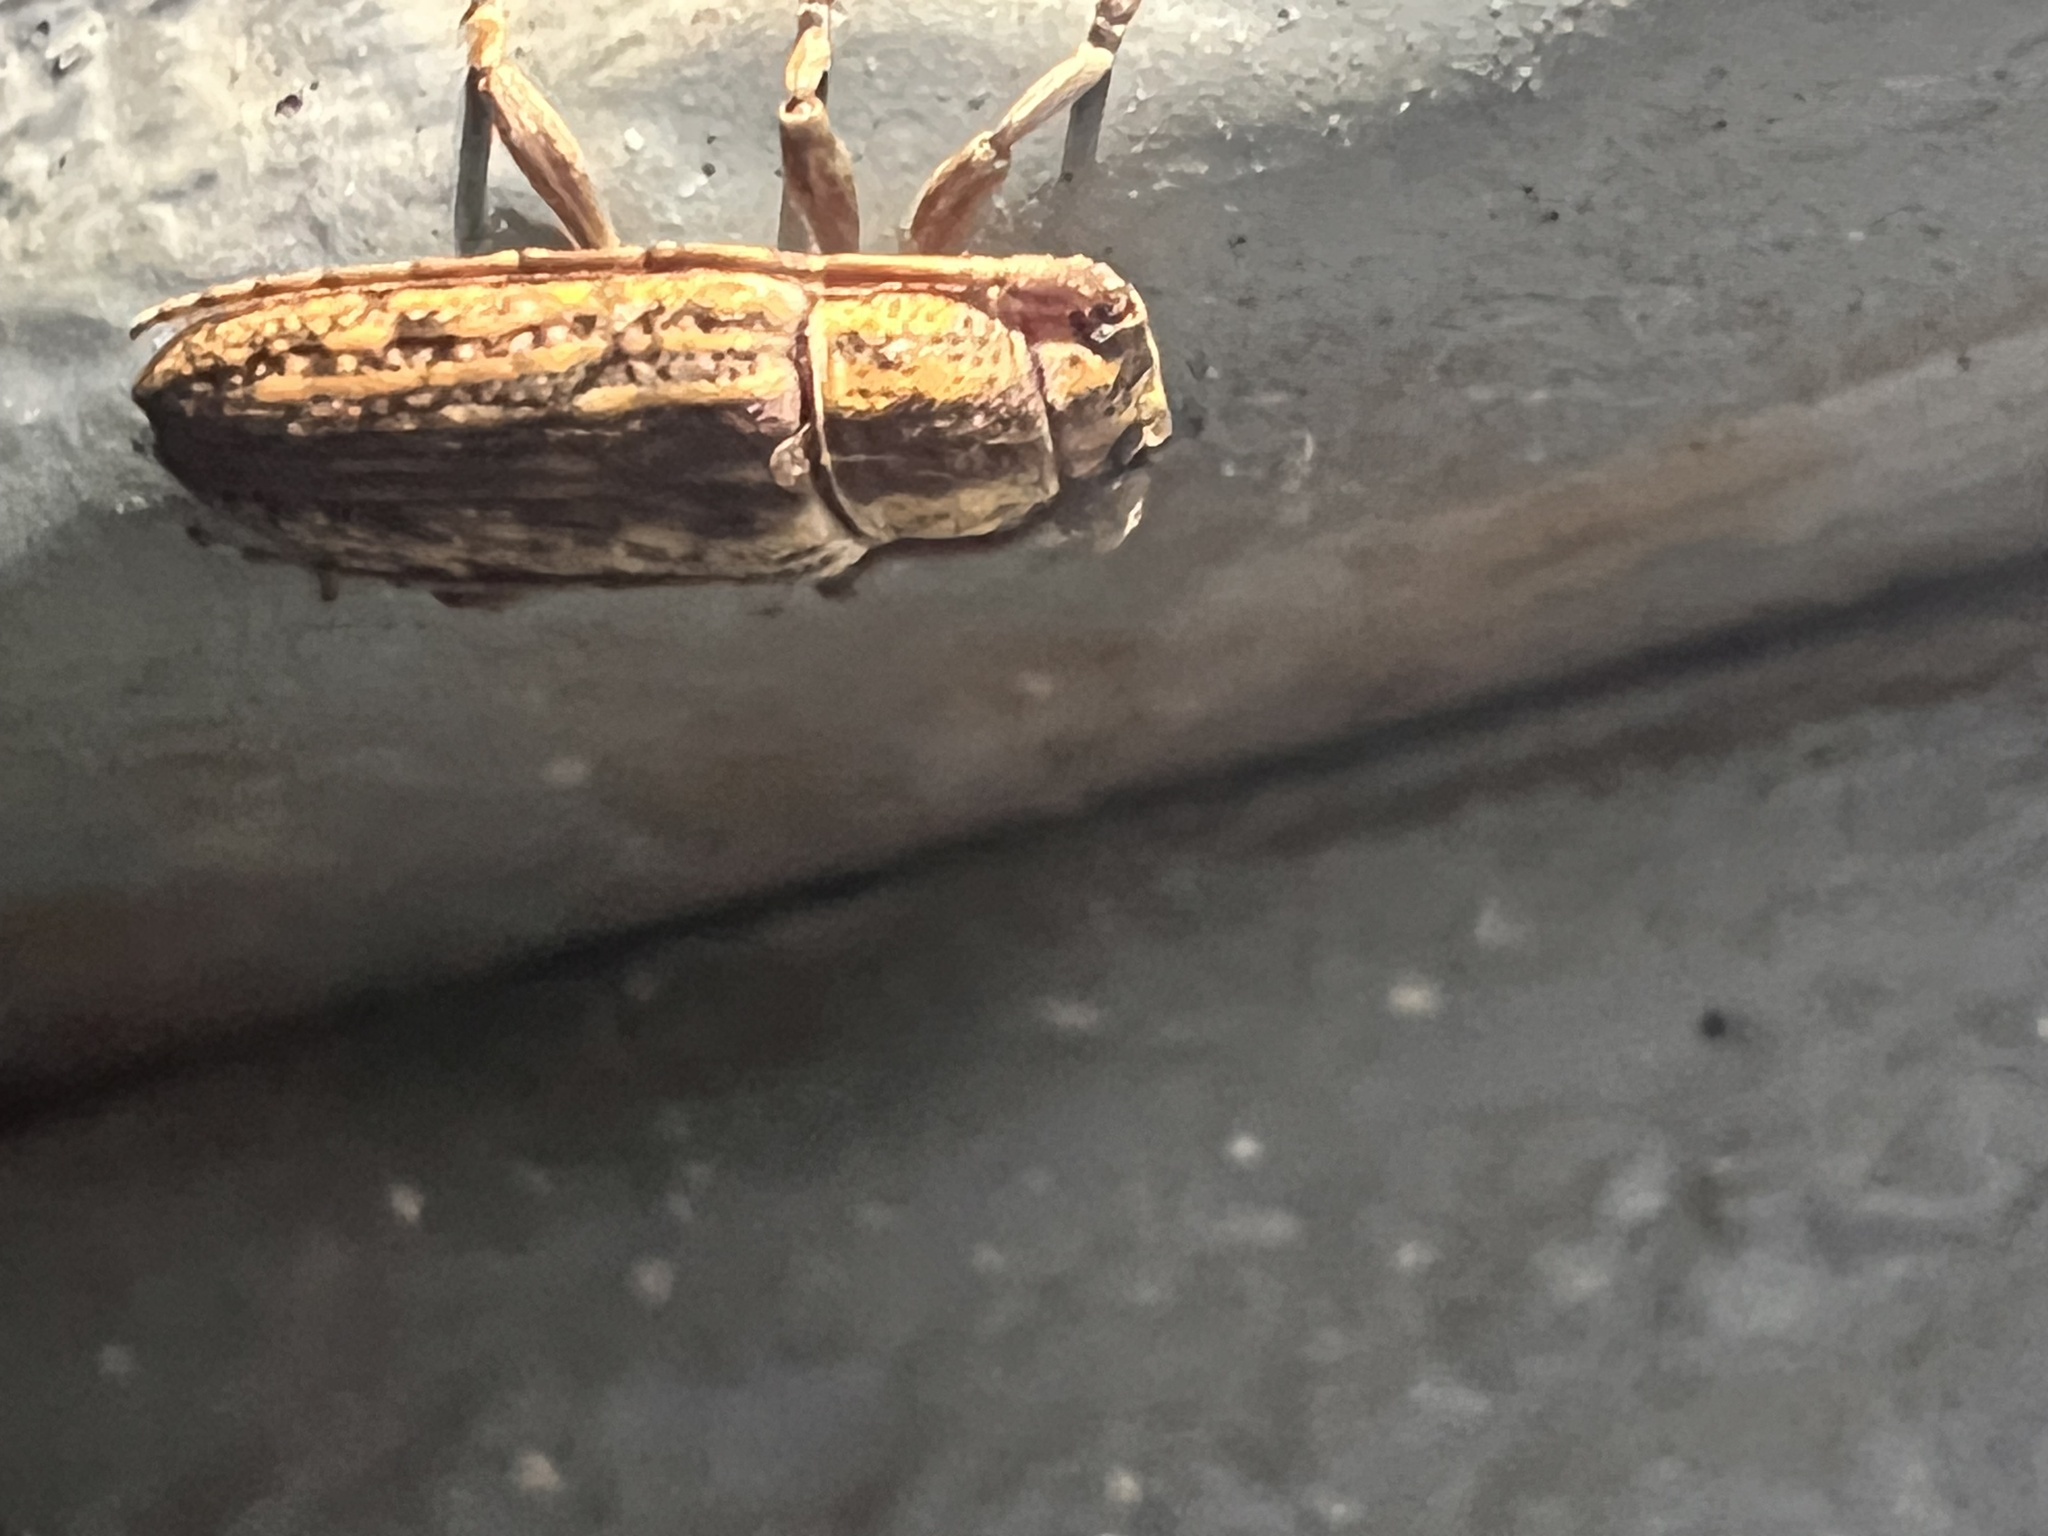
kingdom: Animalia
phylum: Arthropoda
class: Insecta
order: Coleoptera
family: Cerambycidae
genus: Mycerinopsis
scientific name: Mycerinopsis alternans
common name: Long horned beetle
